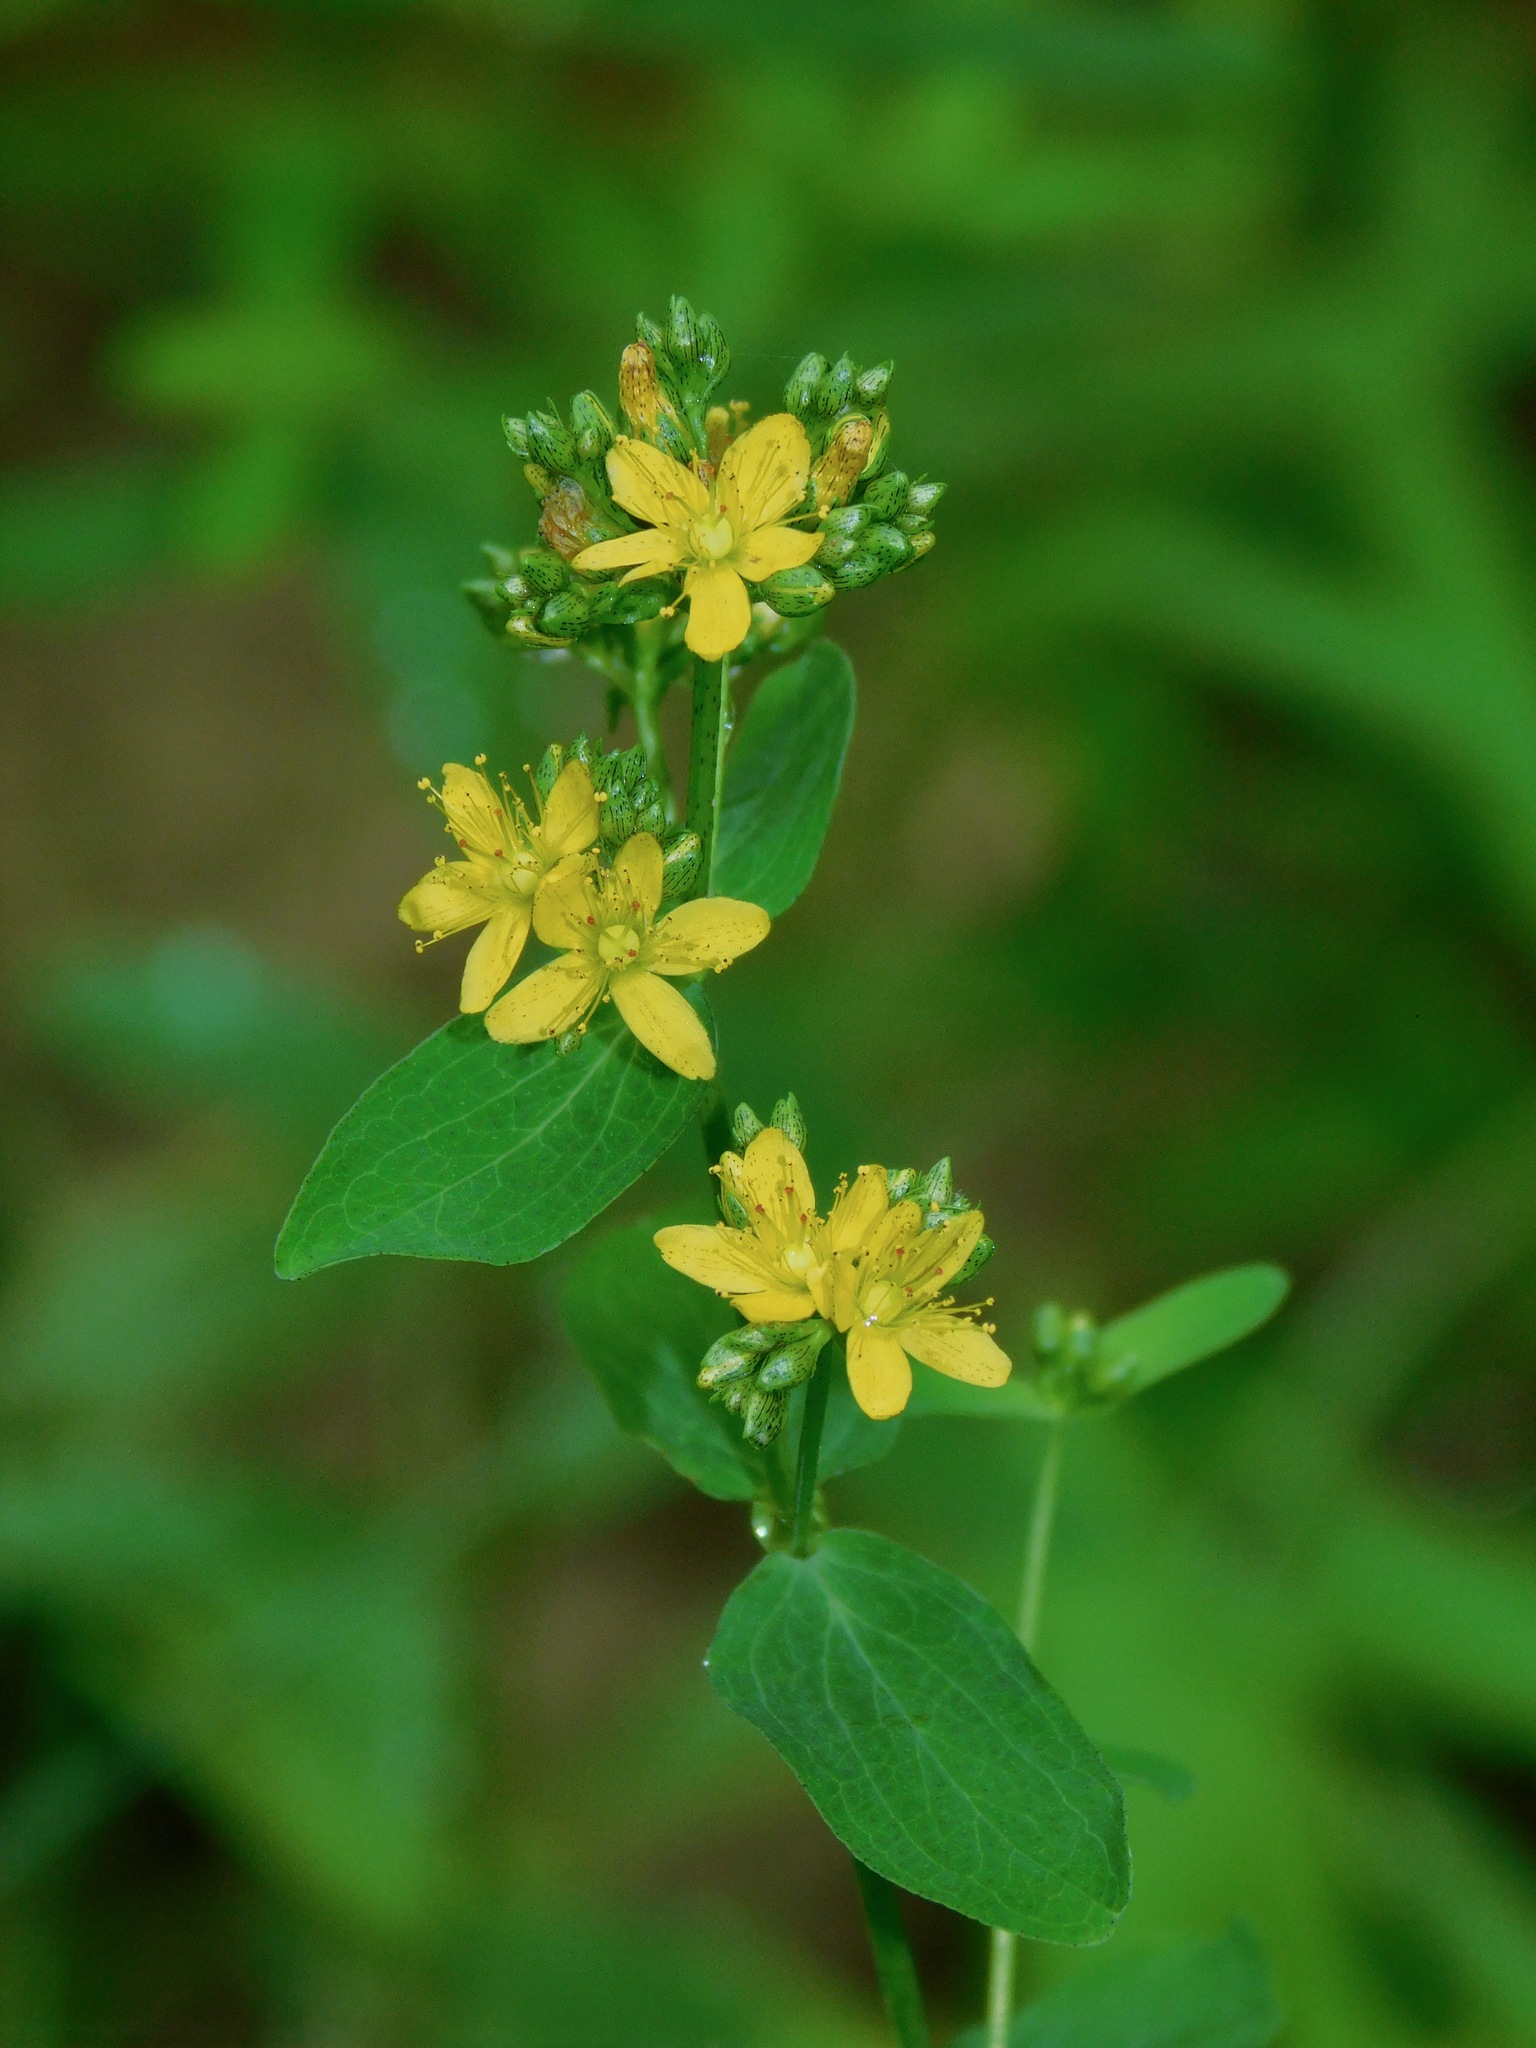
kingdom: Plantae
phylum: Tracheophyta
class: Magnoliopsida
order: Malpighiales
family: Hypericaceae
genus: Hypericum
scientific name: Hypericum punctatum
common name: Spotted st. john's-wort
